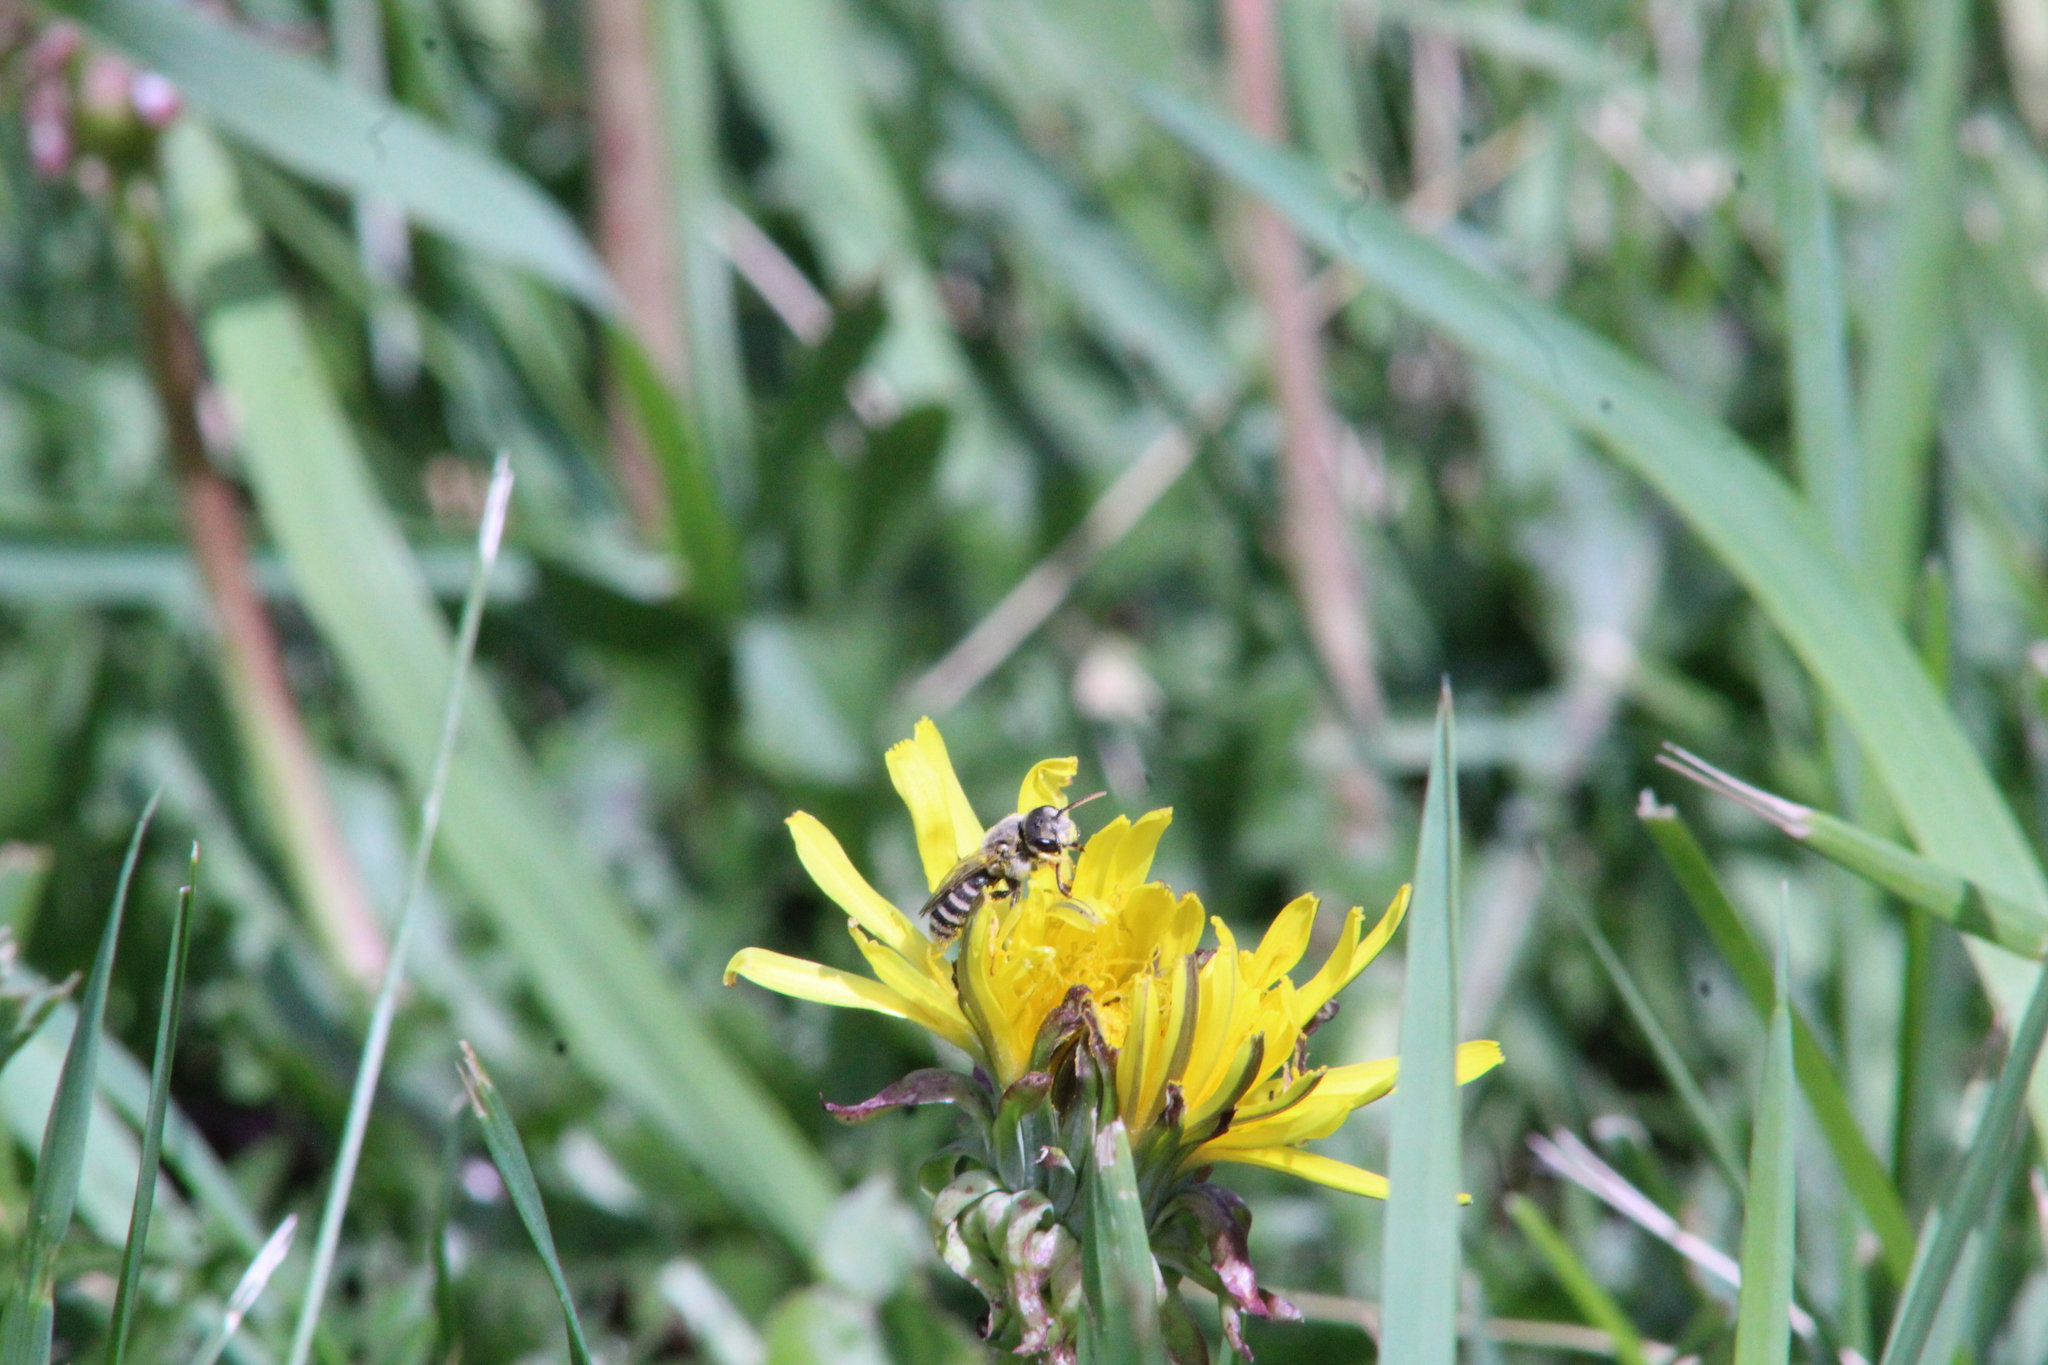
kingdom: Animalia
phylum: Arthropoda
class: Insecta
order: Hymenoptera
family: Halictidae
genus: Halictus
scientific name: Halictus ligatus
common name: Ligated furrow bee
